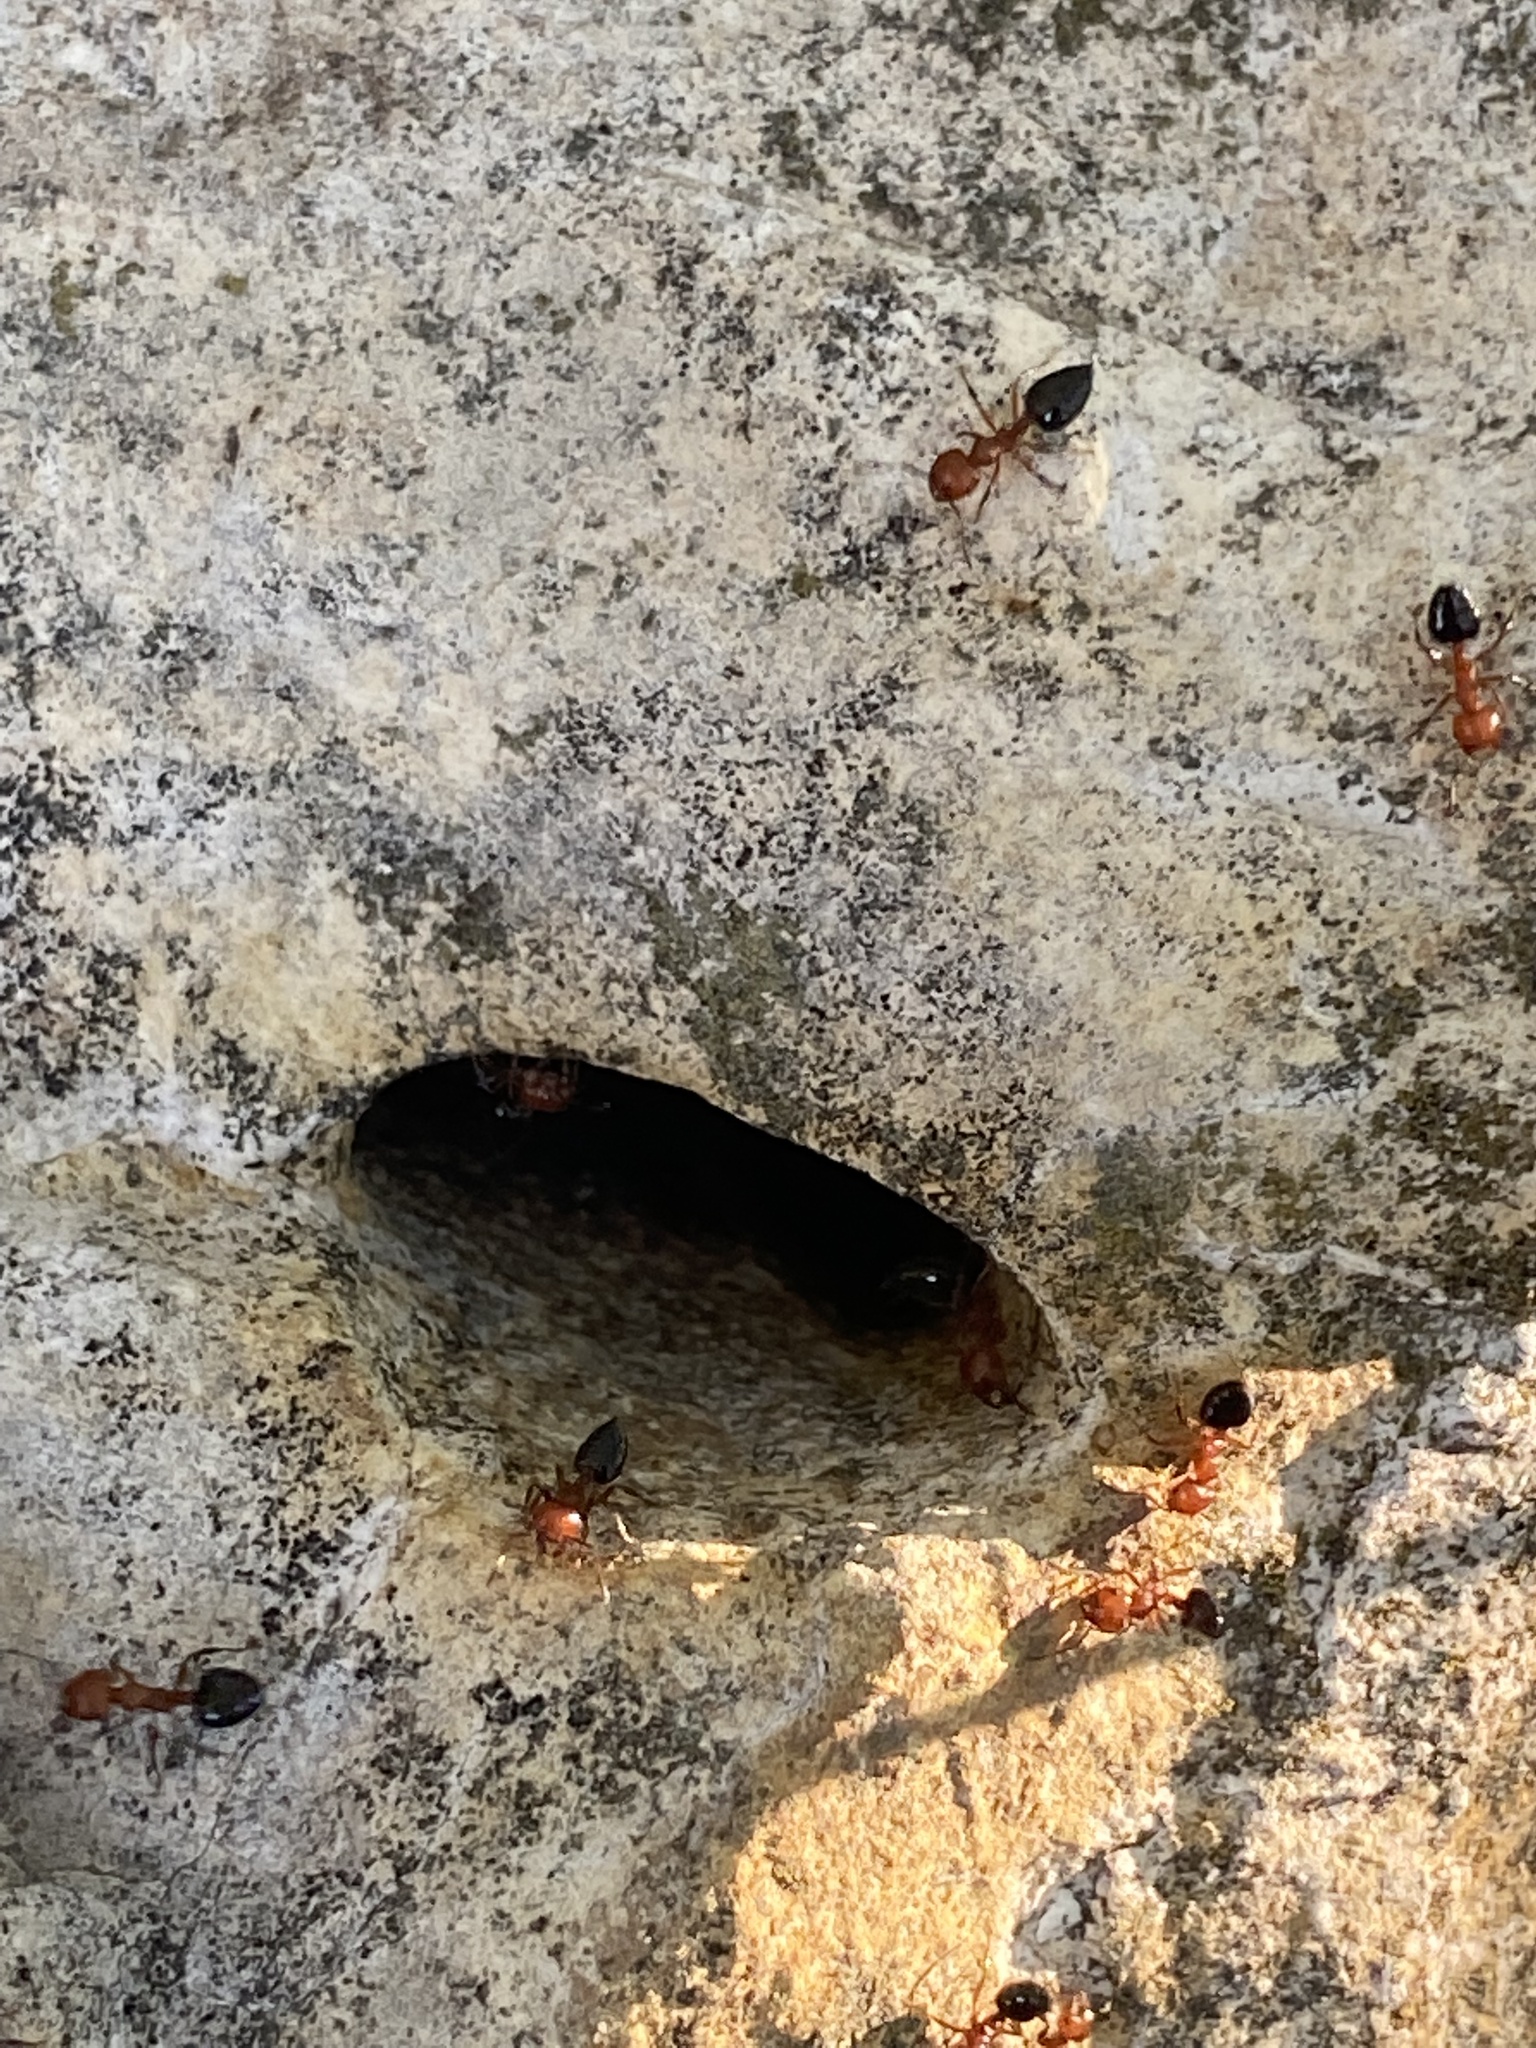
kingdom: Animalia
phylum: Arthropoda
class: Insecta
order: Hymenoptera
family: Formicidae
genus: Crematogaster
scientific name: Crematogaster laeviuscula
